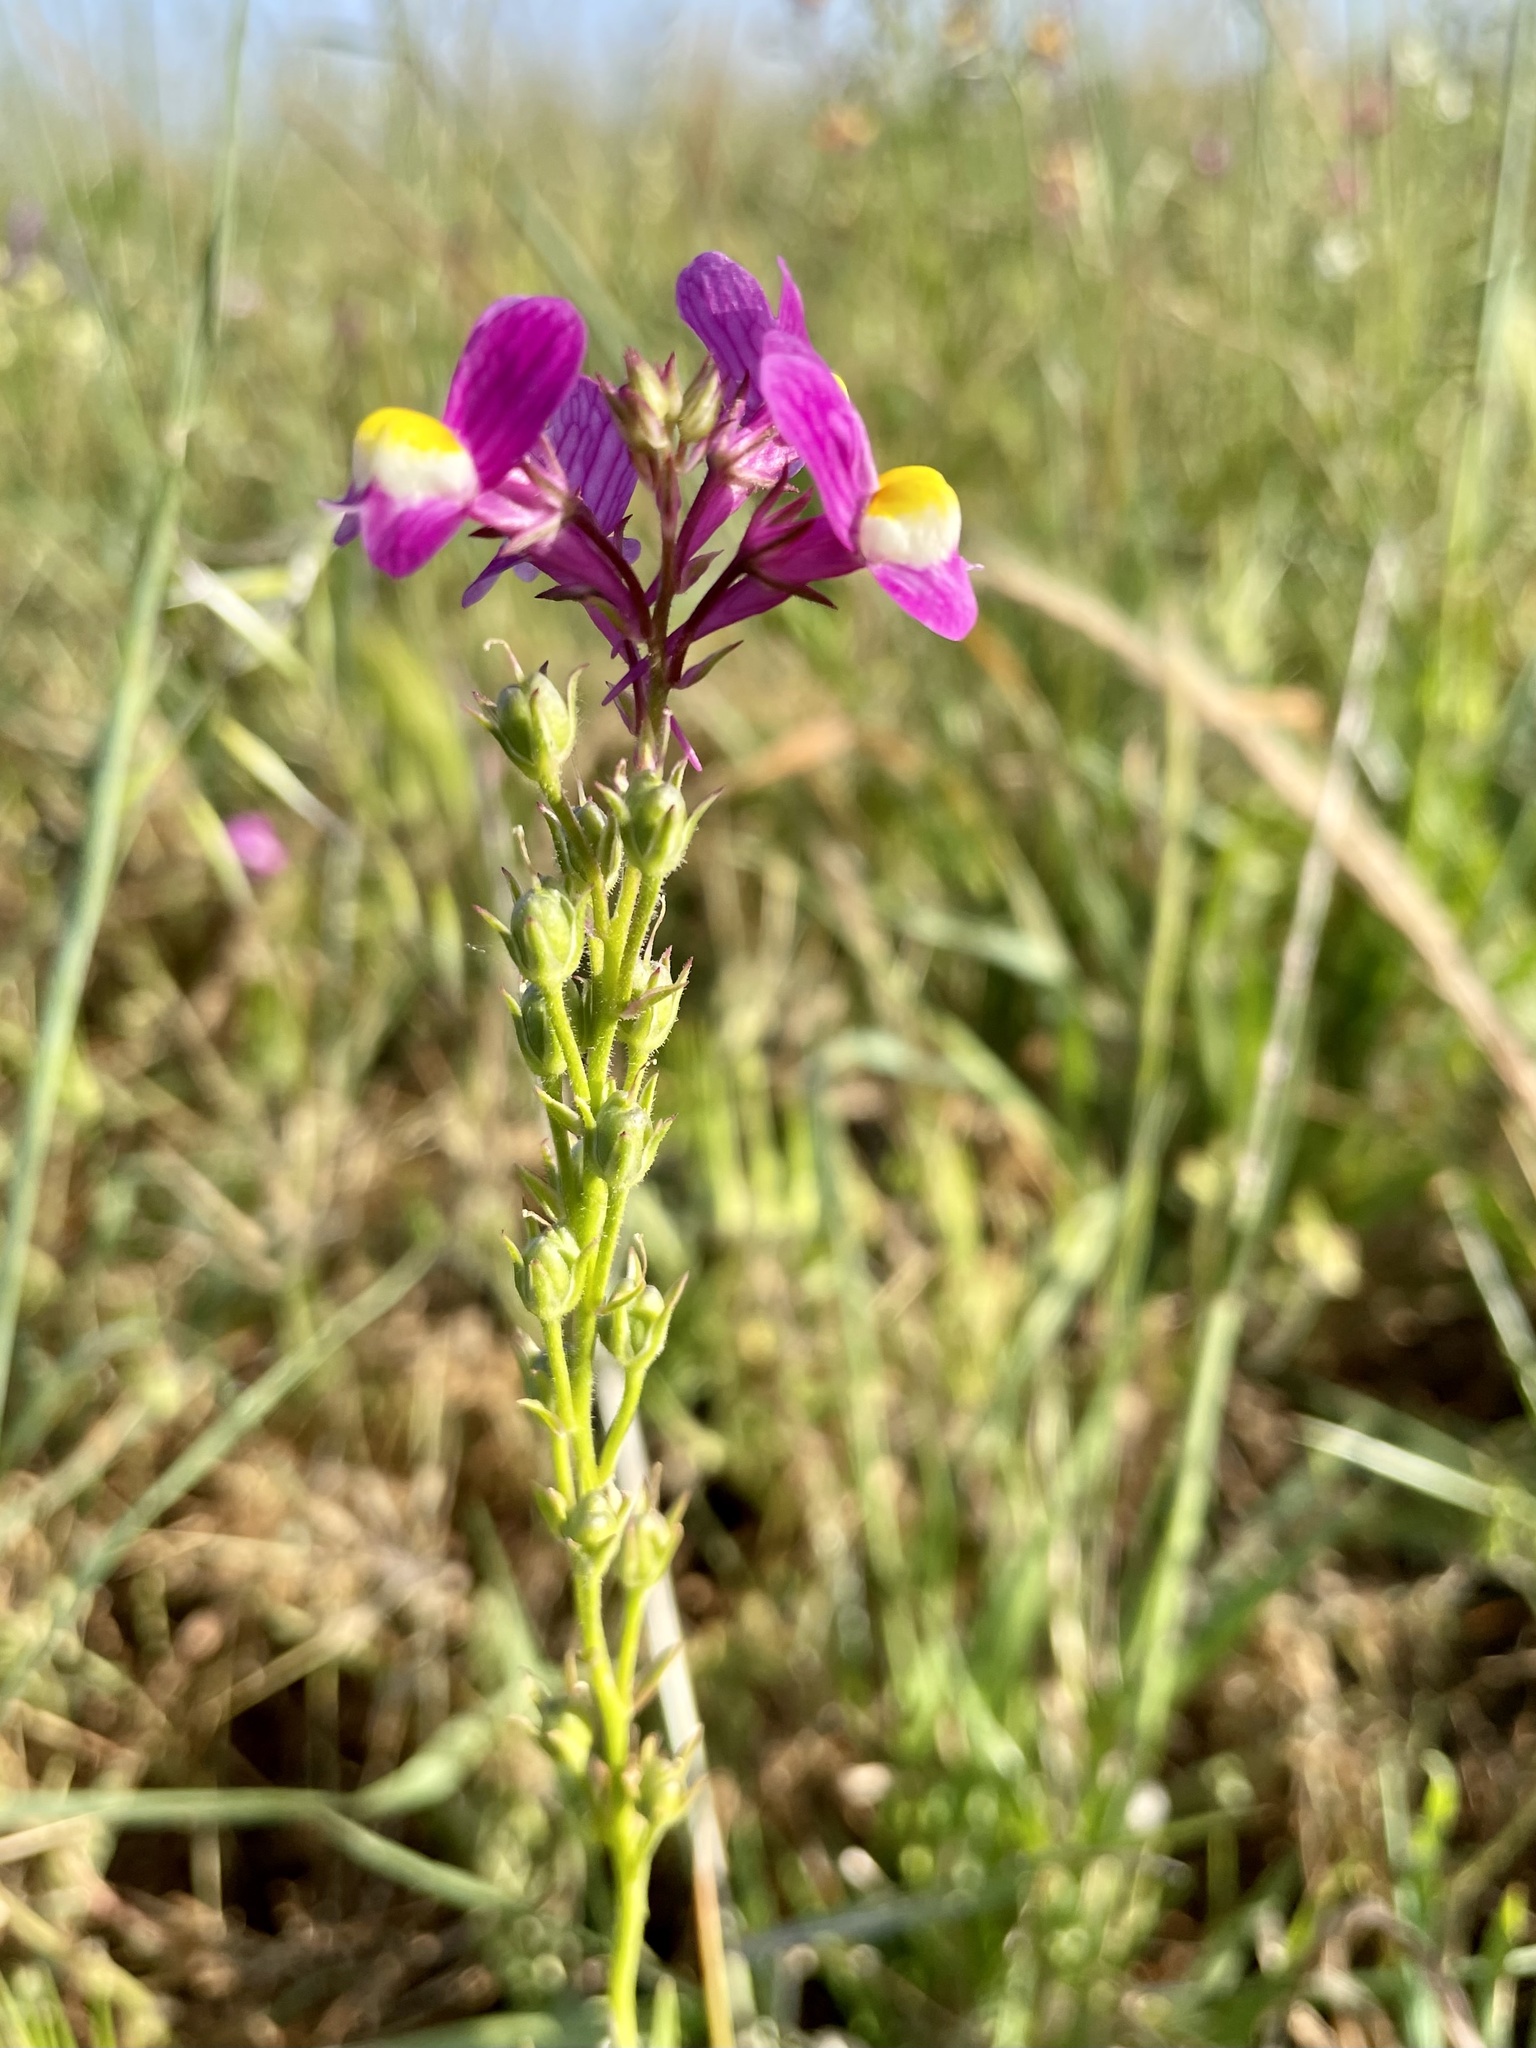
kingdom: Plantae
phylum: Tracheophyta
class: Magnoliopsida
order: Lamiales
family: Plantaginaceae
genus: Linaria
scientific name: Linaria maroccana
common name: Moroccan toadflax
